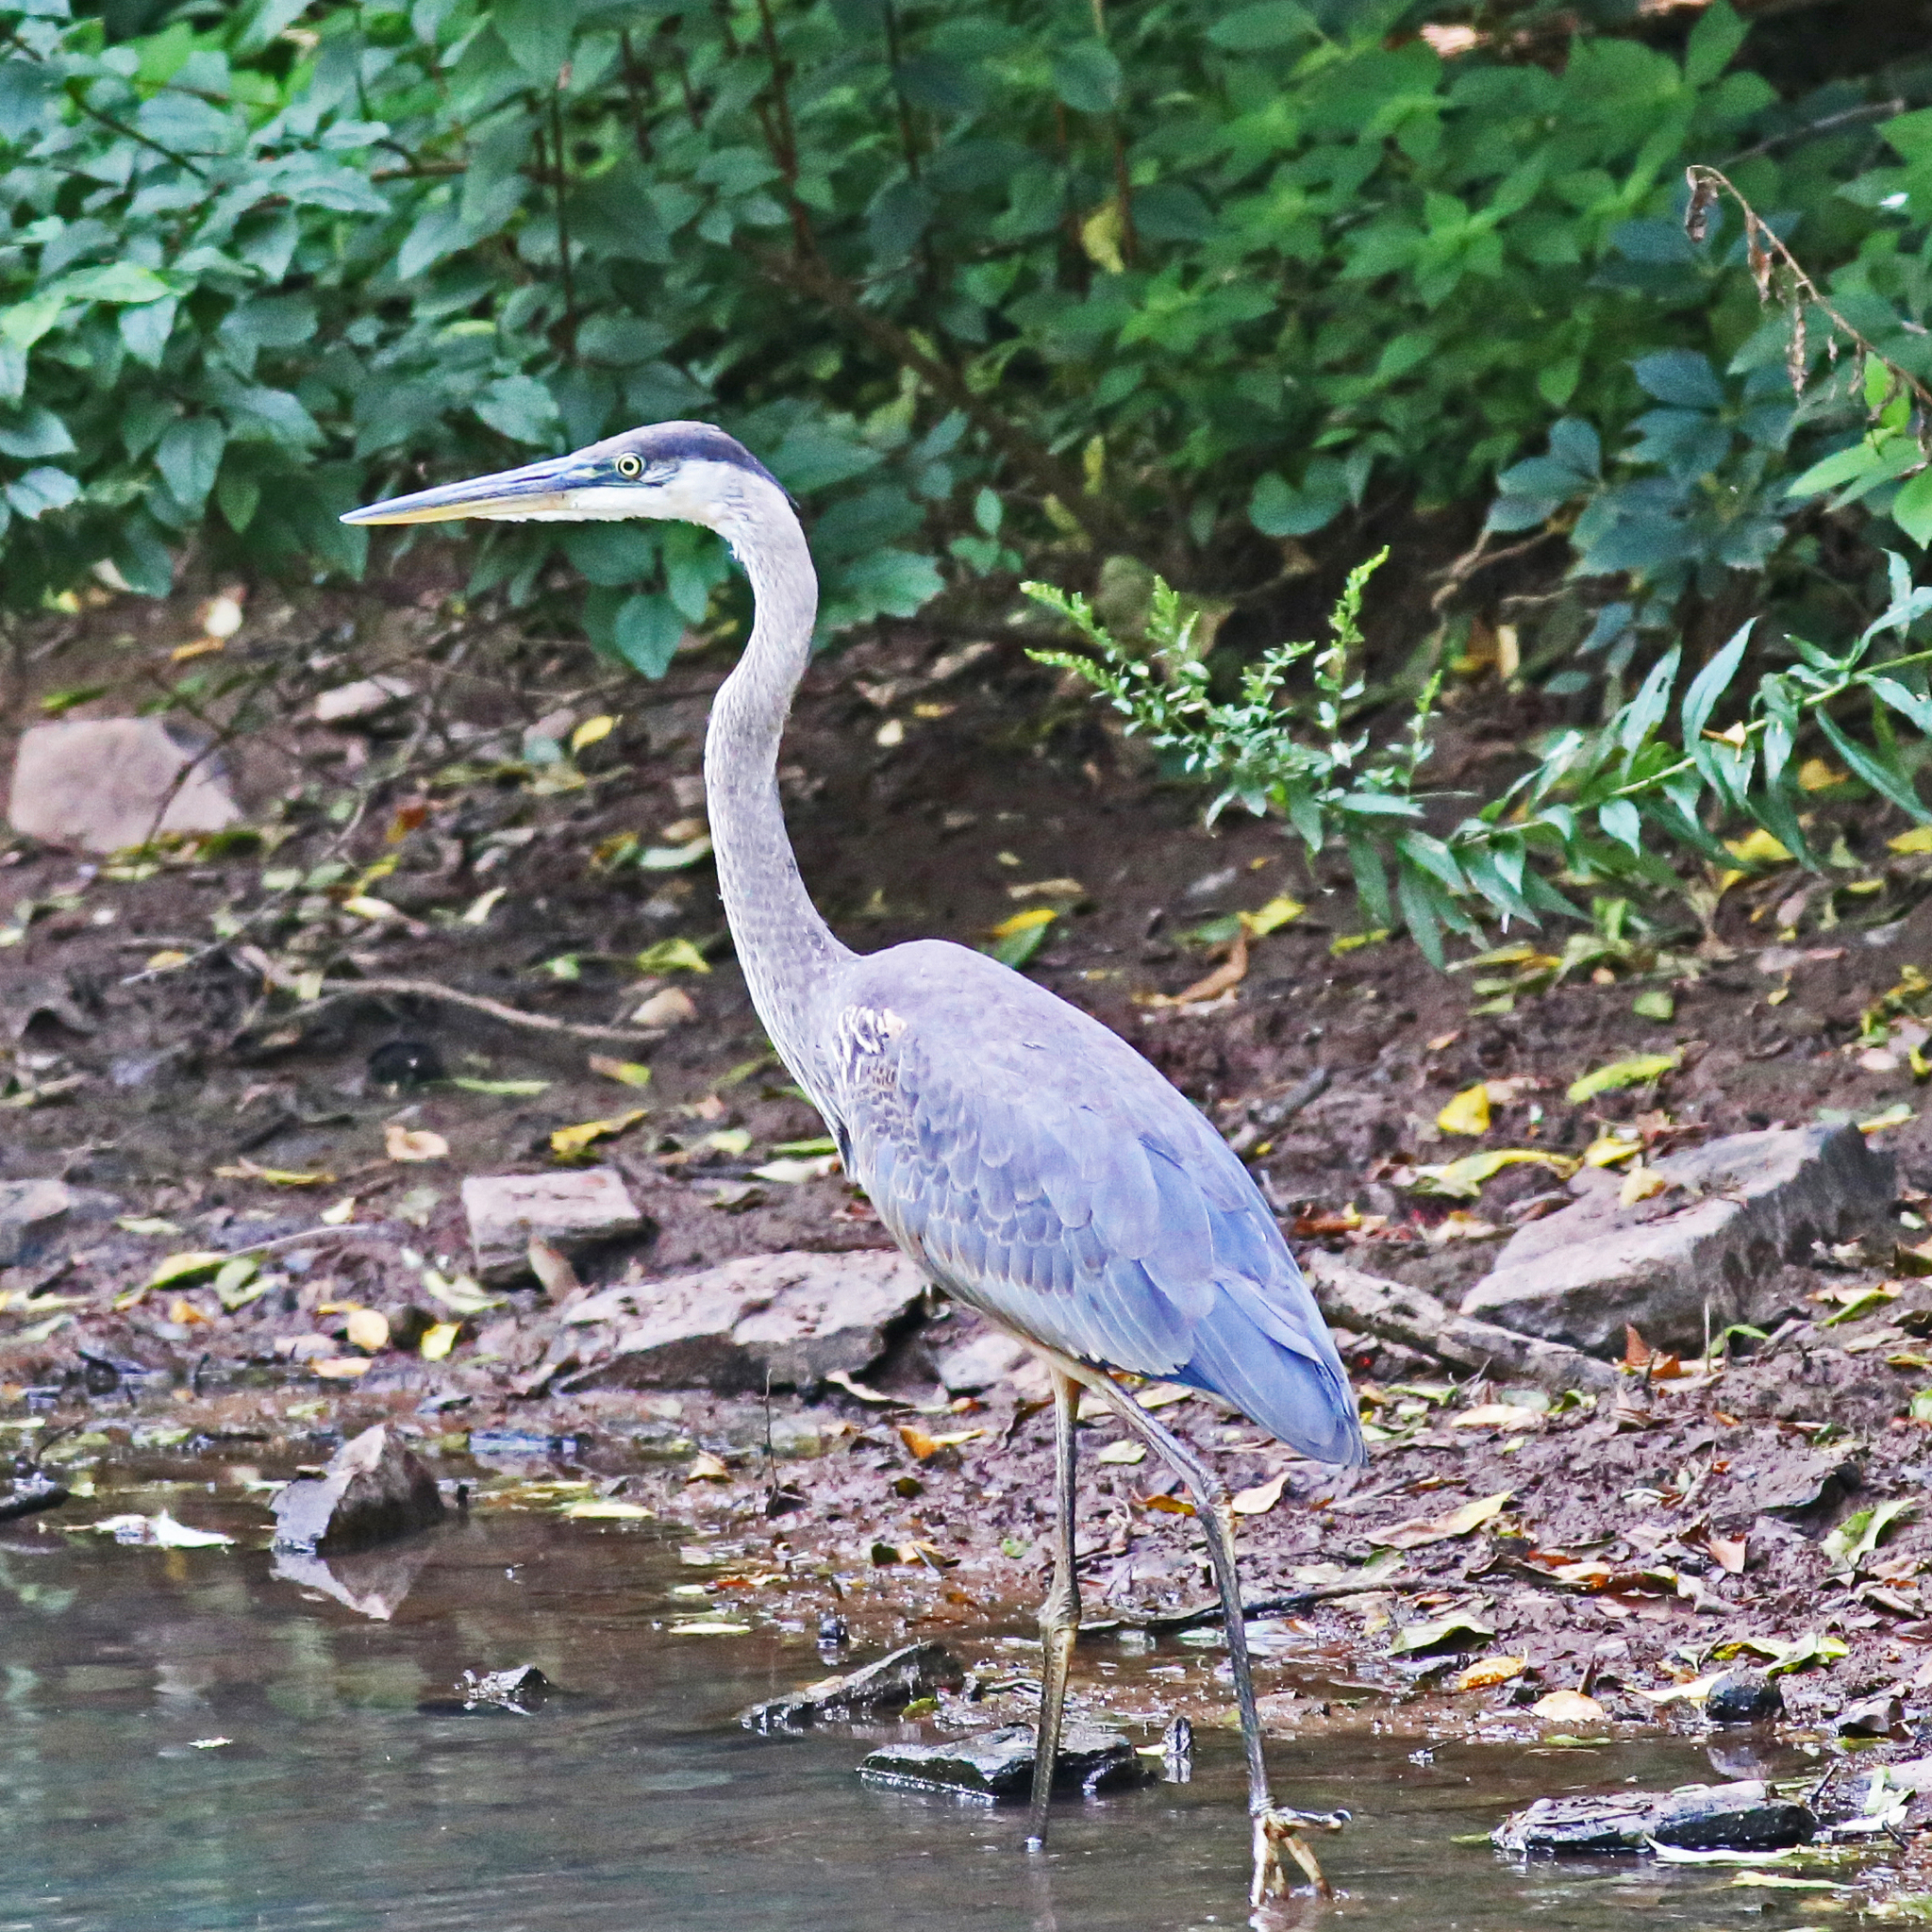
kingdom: Animalia
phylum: Chordata
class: Aves
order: Pelecaniformes
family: Ardeidae
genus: Ardea
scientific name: Ardea herodias
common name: Great blue heron
